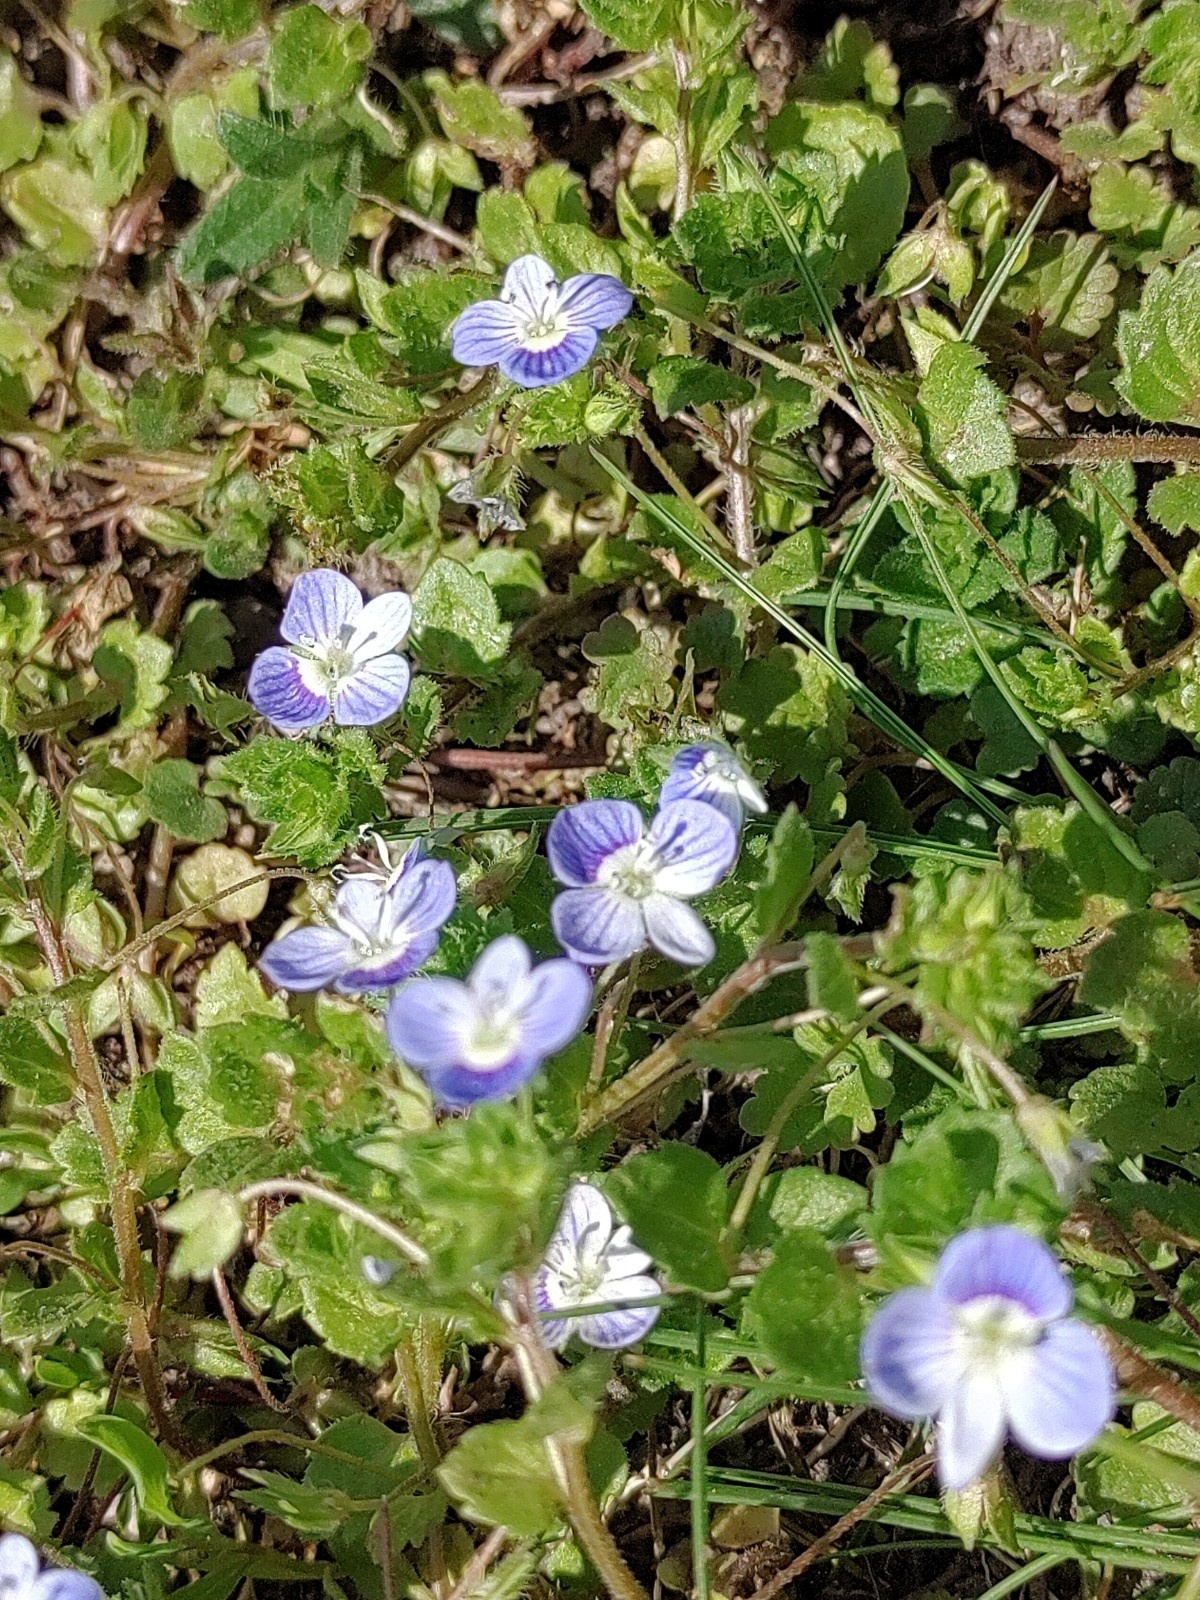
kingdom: Plantae
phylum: Tracheophyta
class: Magnoliopsida
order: Lamiales
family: Plantaginaceae
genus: Veronica
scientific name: Veronica persica
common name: Common field-speedwell
